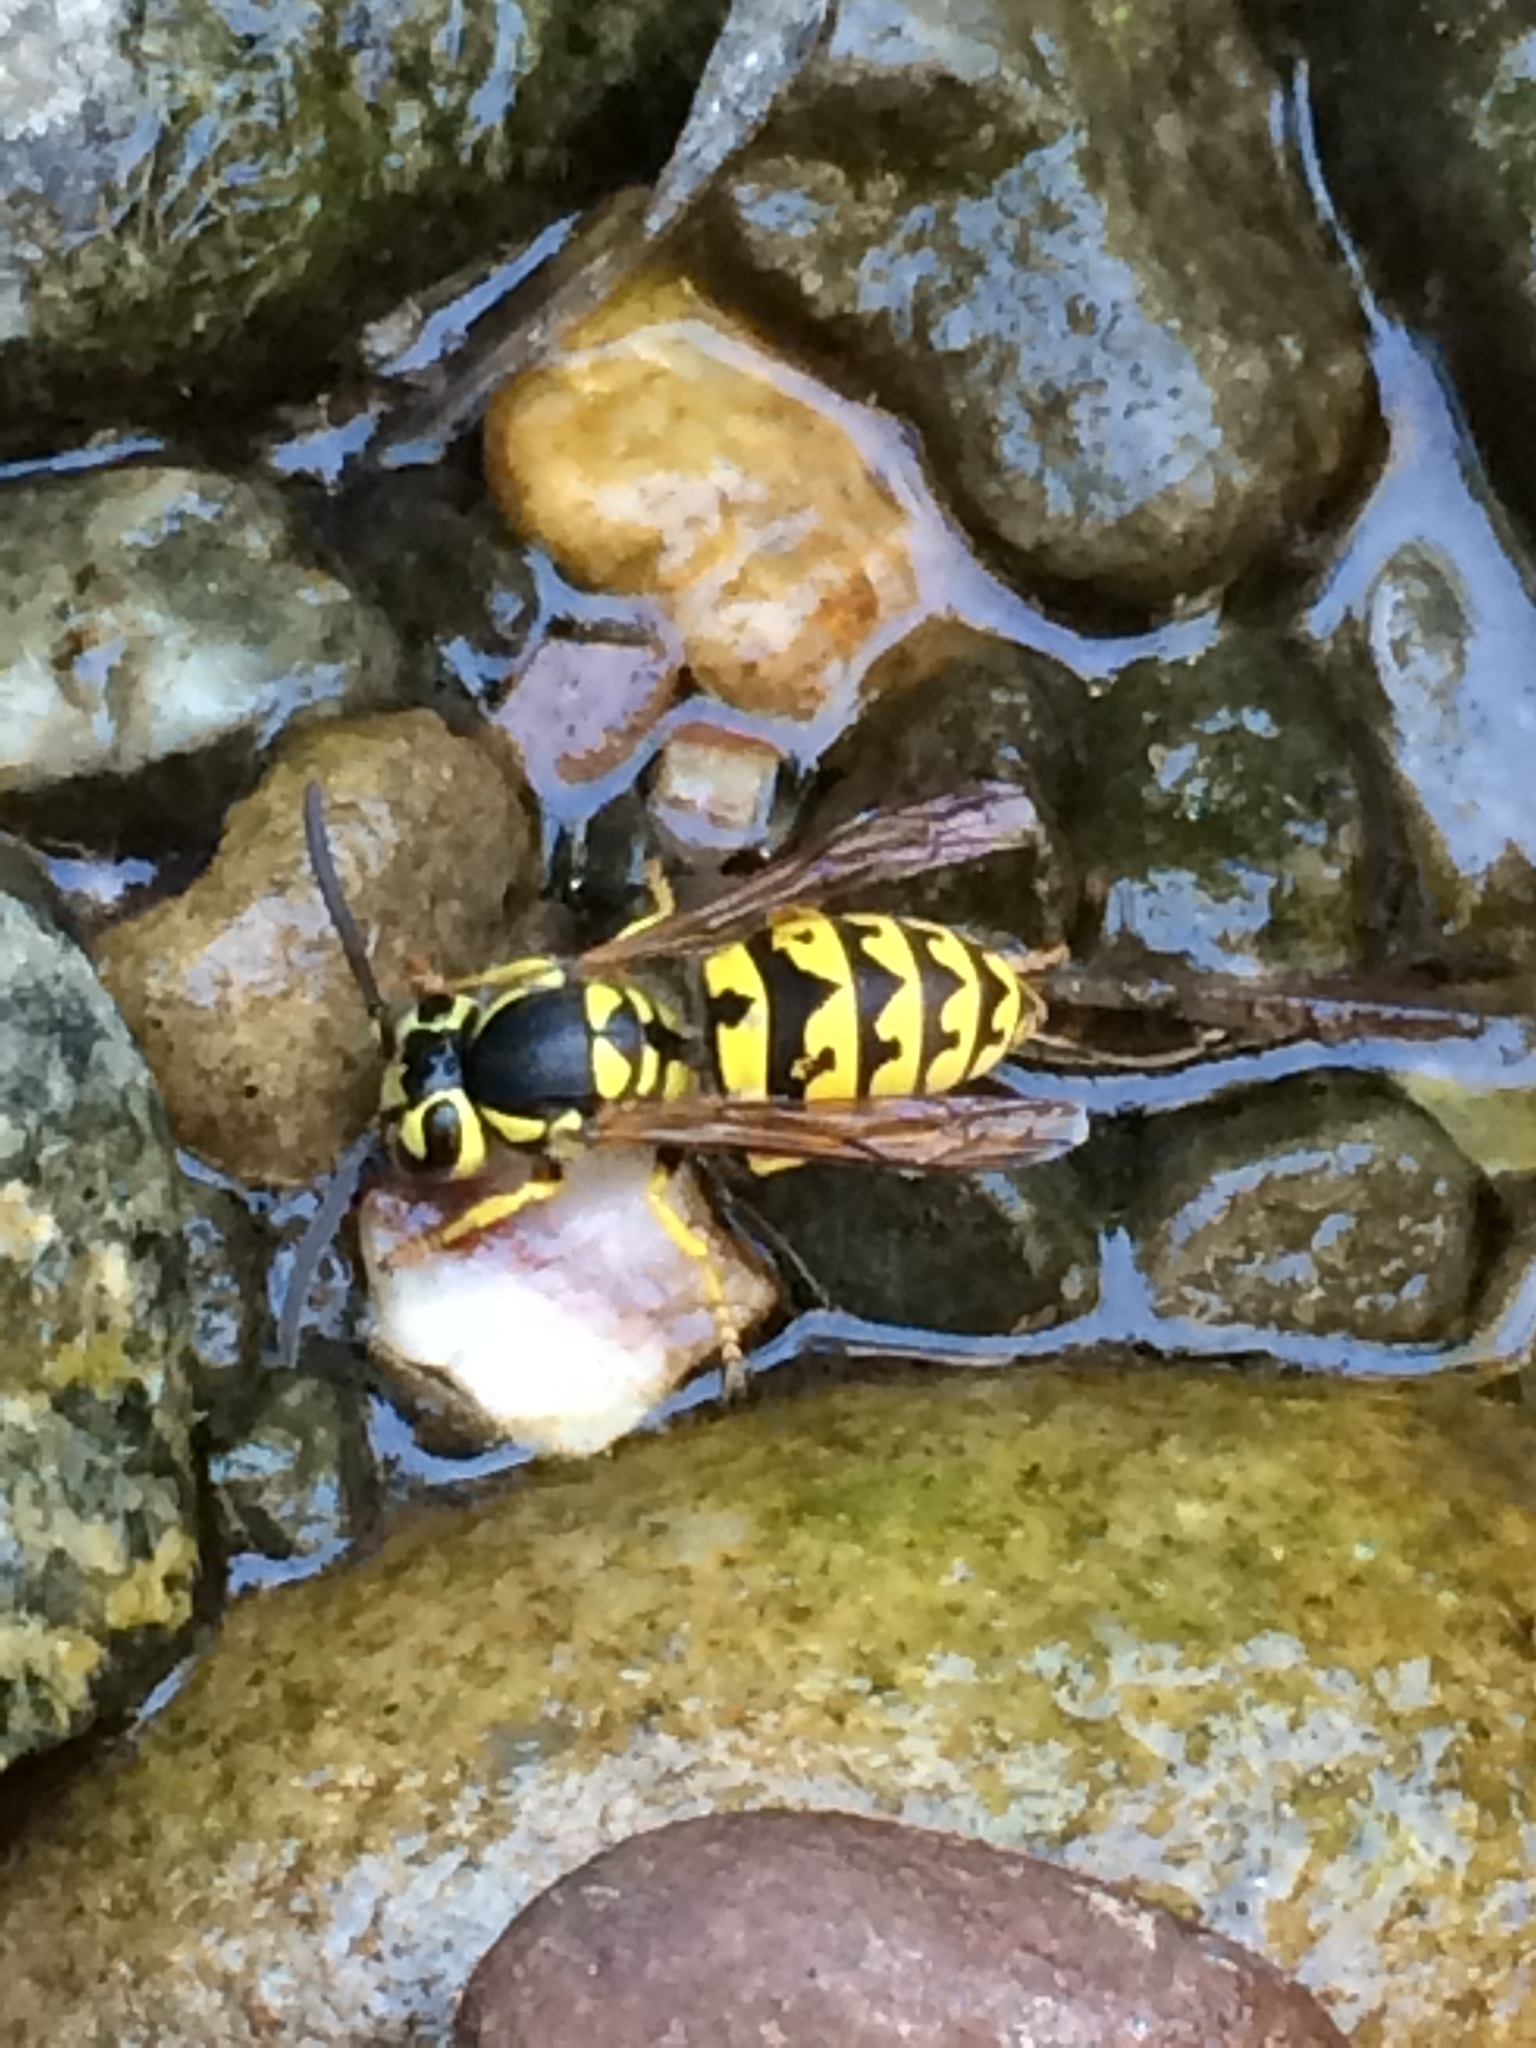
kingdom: Animalia
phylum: Arthropoda
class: Insecta
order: Hymenoptera
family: Vespidae
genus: Vespula
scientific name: Vespula pensylvanica
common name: Western yellowjacket
